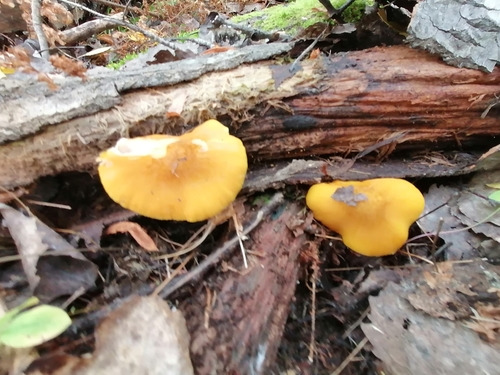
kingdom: Fungi
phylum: Basidiomycota
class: Agaricomycetes
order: Agaricales
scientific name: Agaricales
